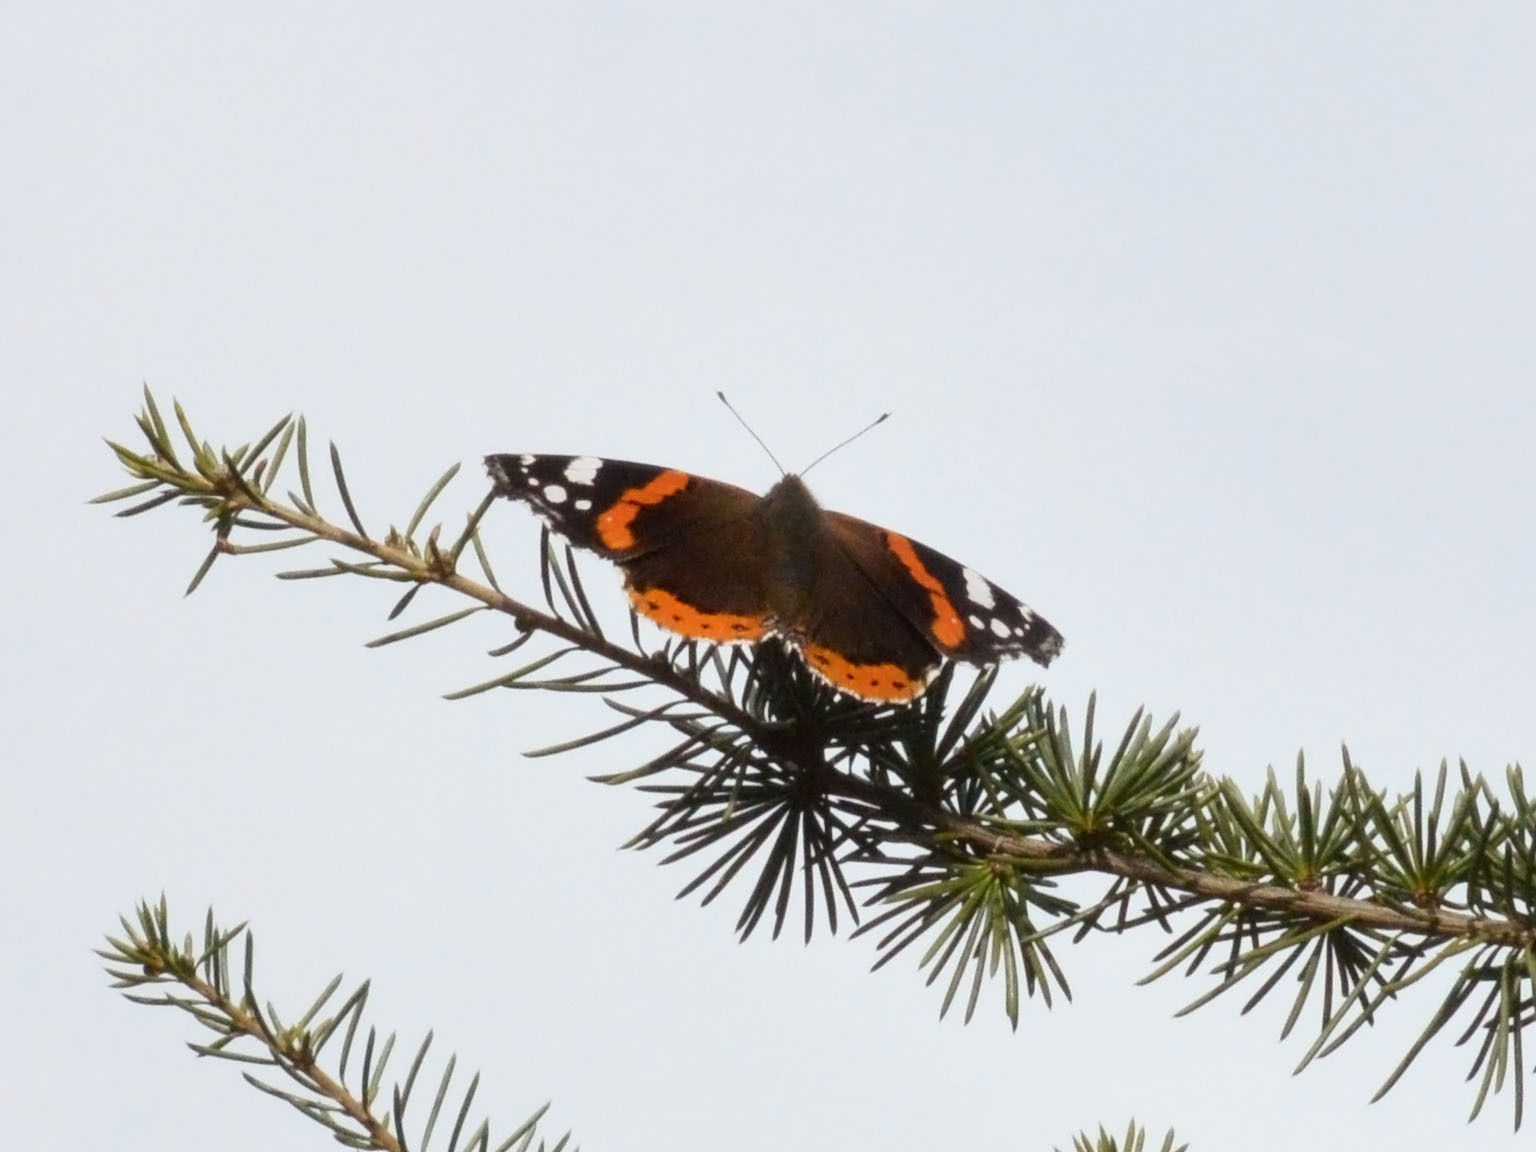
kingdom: Animalia
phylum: Arthropoda
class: Insecta
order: Lepidoptera
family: Nymphalidae
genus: Vanessa
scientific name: Vanessa atalanta
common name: Red admiral
